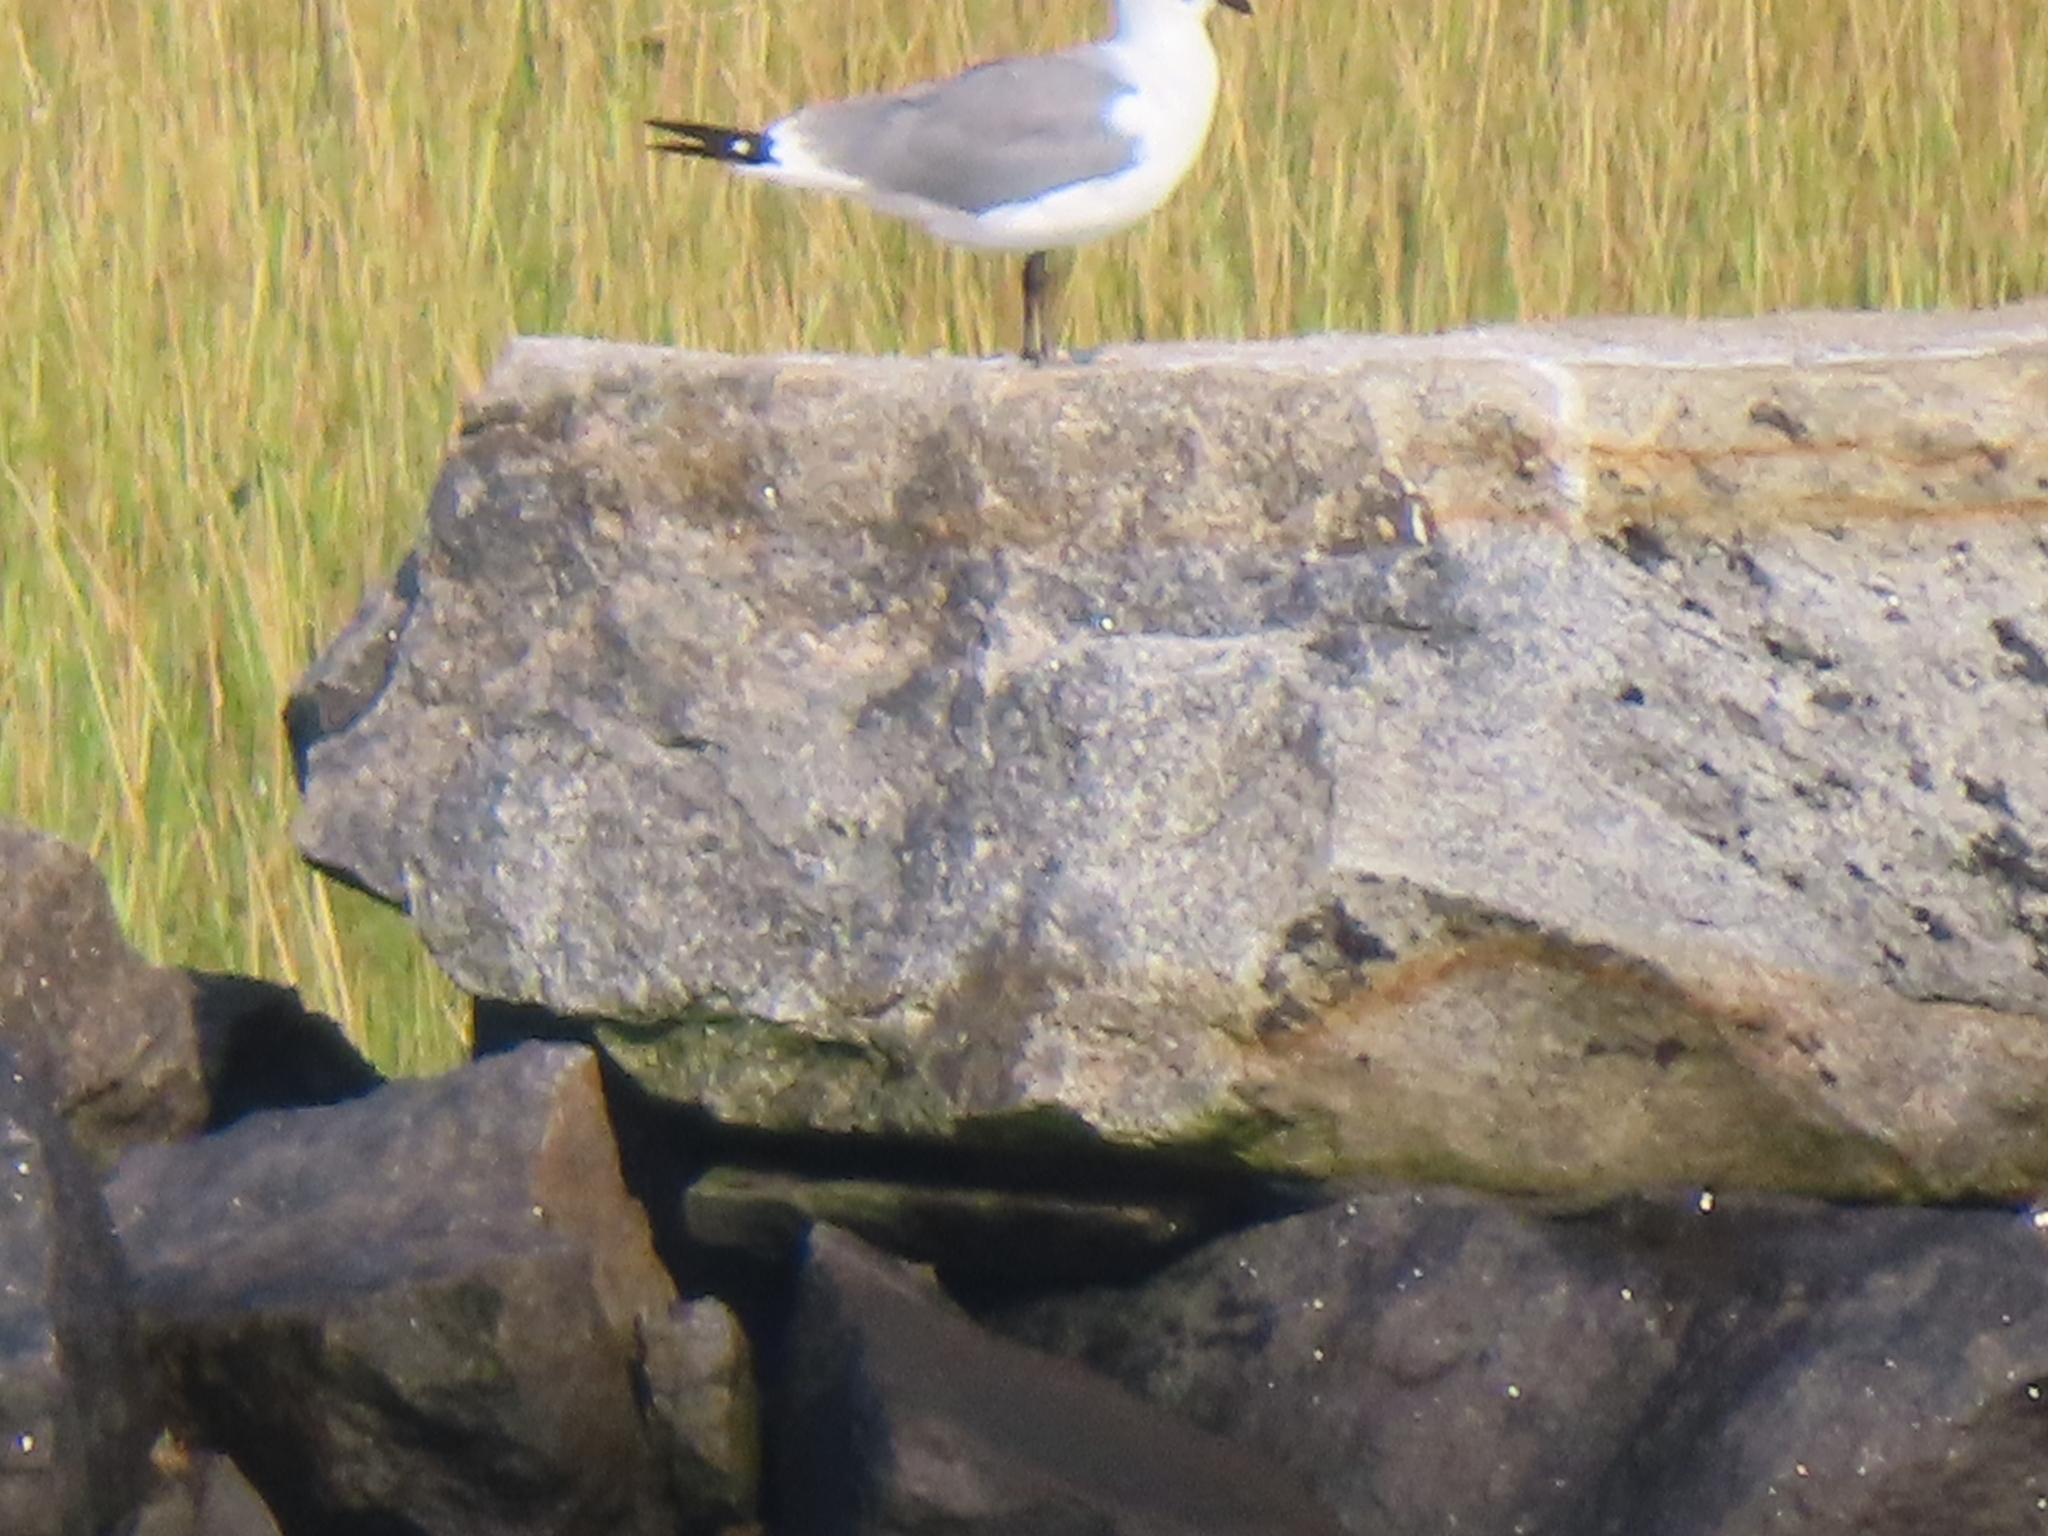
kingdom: Animalia
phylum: Chordata
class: Aves
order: Charadriiformes
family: Laridae
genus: Leucophaeus
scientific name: Leucophaeus atricilla
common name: Laughing gull
